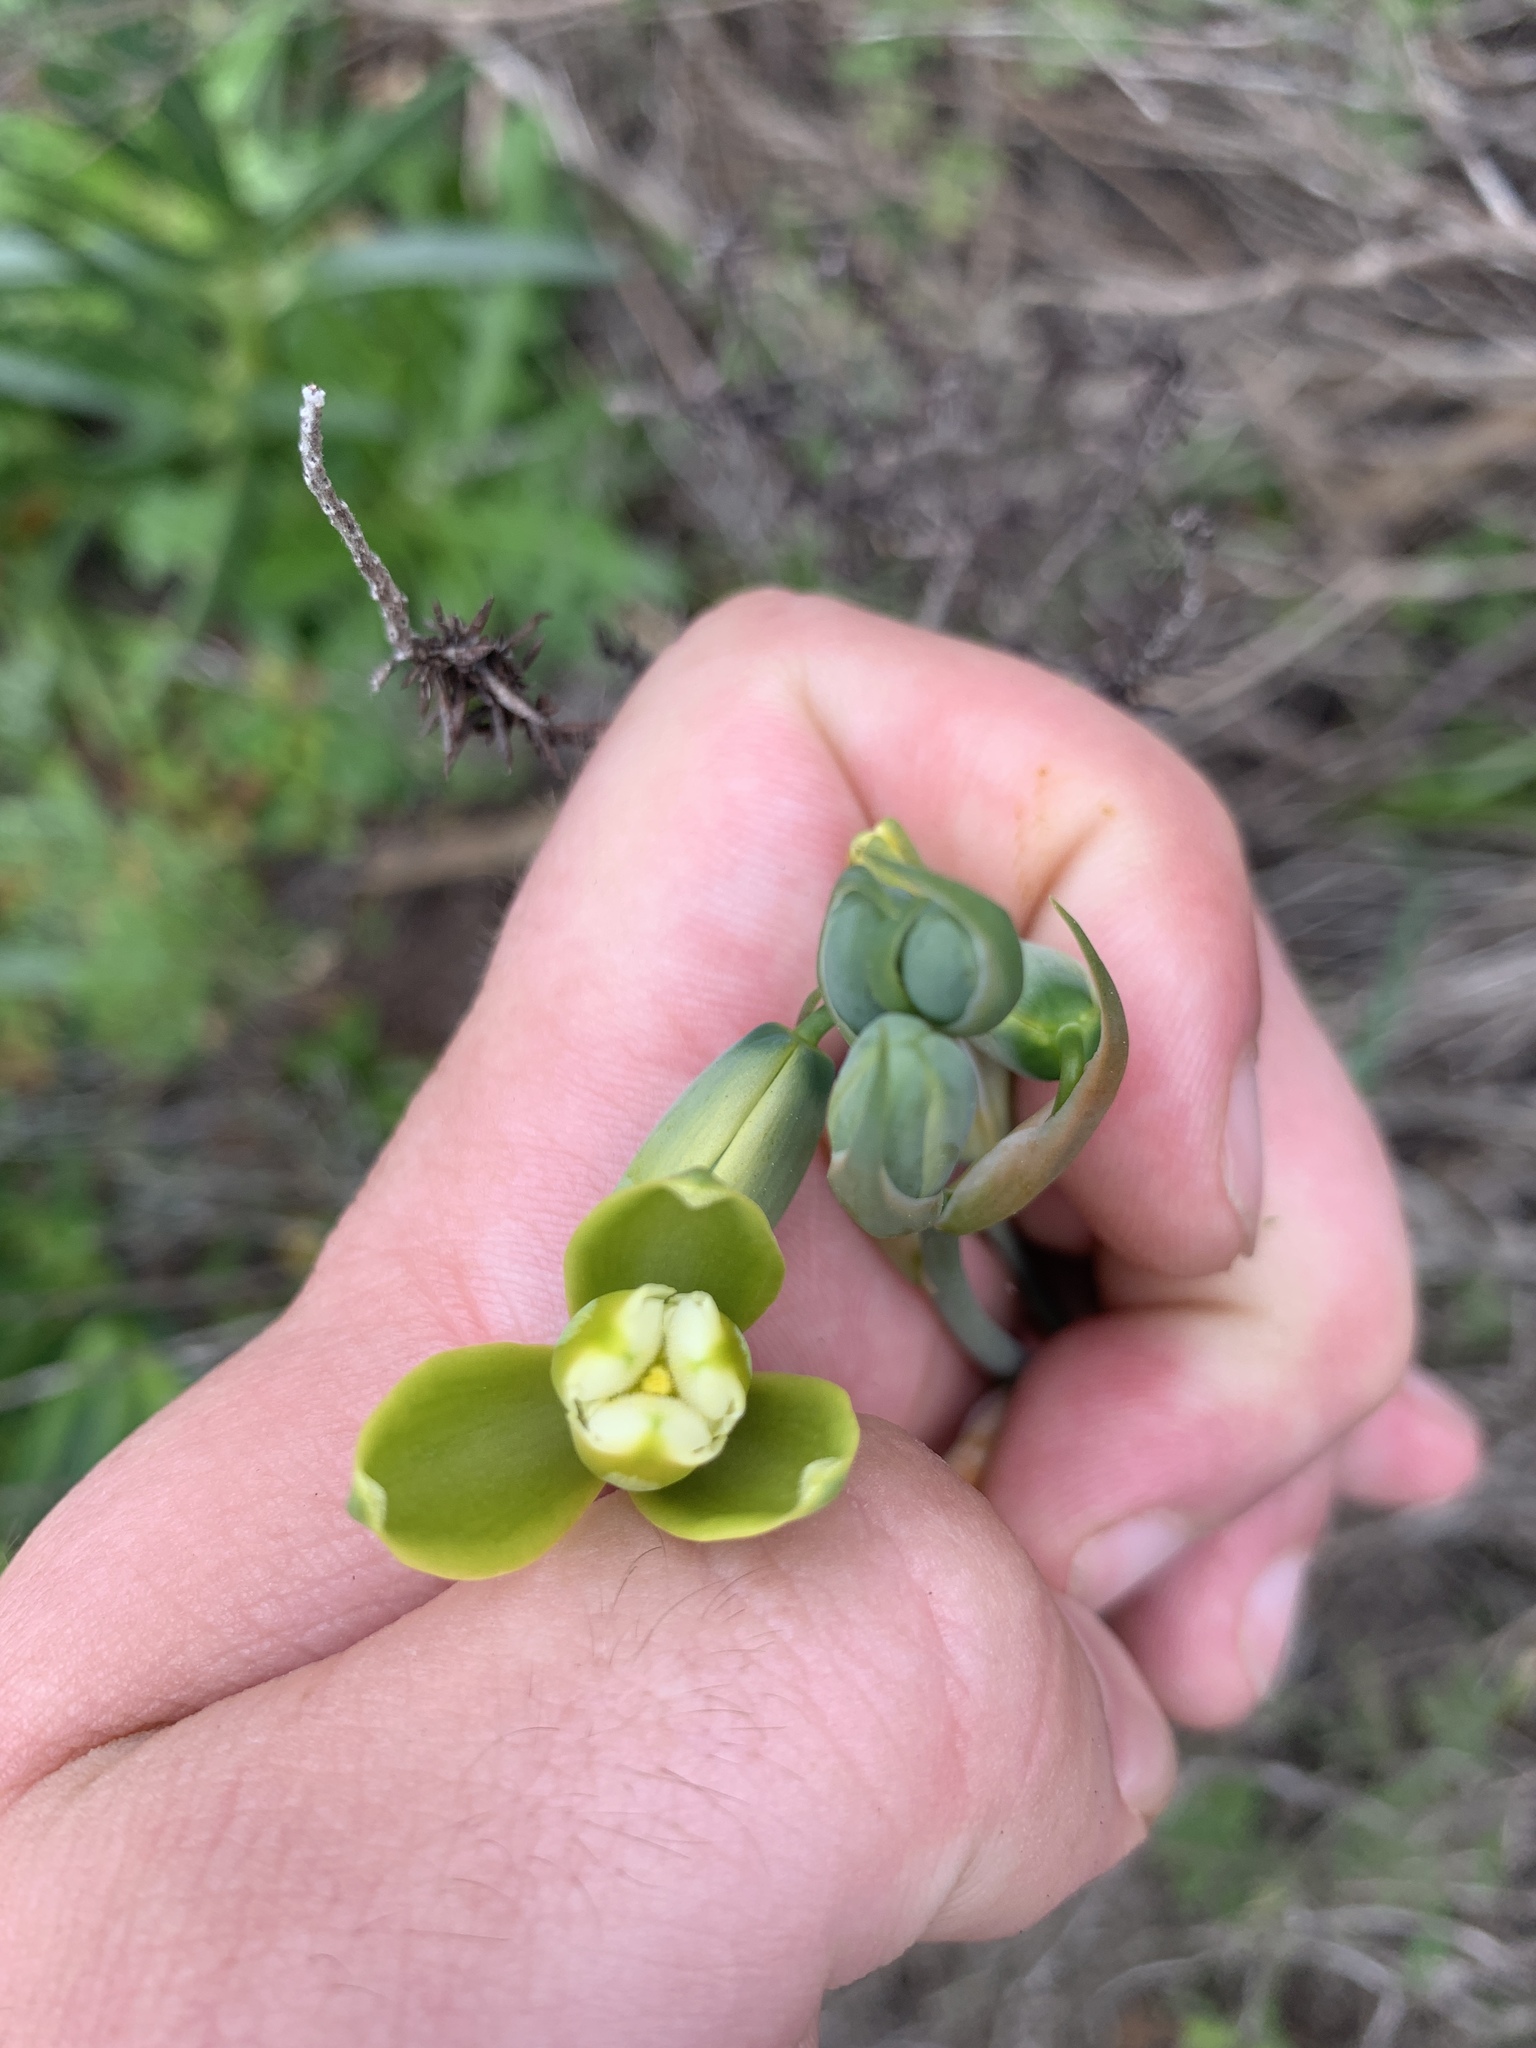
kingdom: Plantae
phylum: Tracheophyta
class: Liliopsida
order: Asparagales
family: Asparagaceae
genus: Albuca
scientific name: Albuca cooperi
